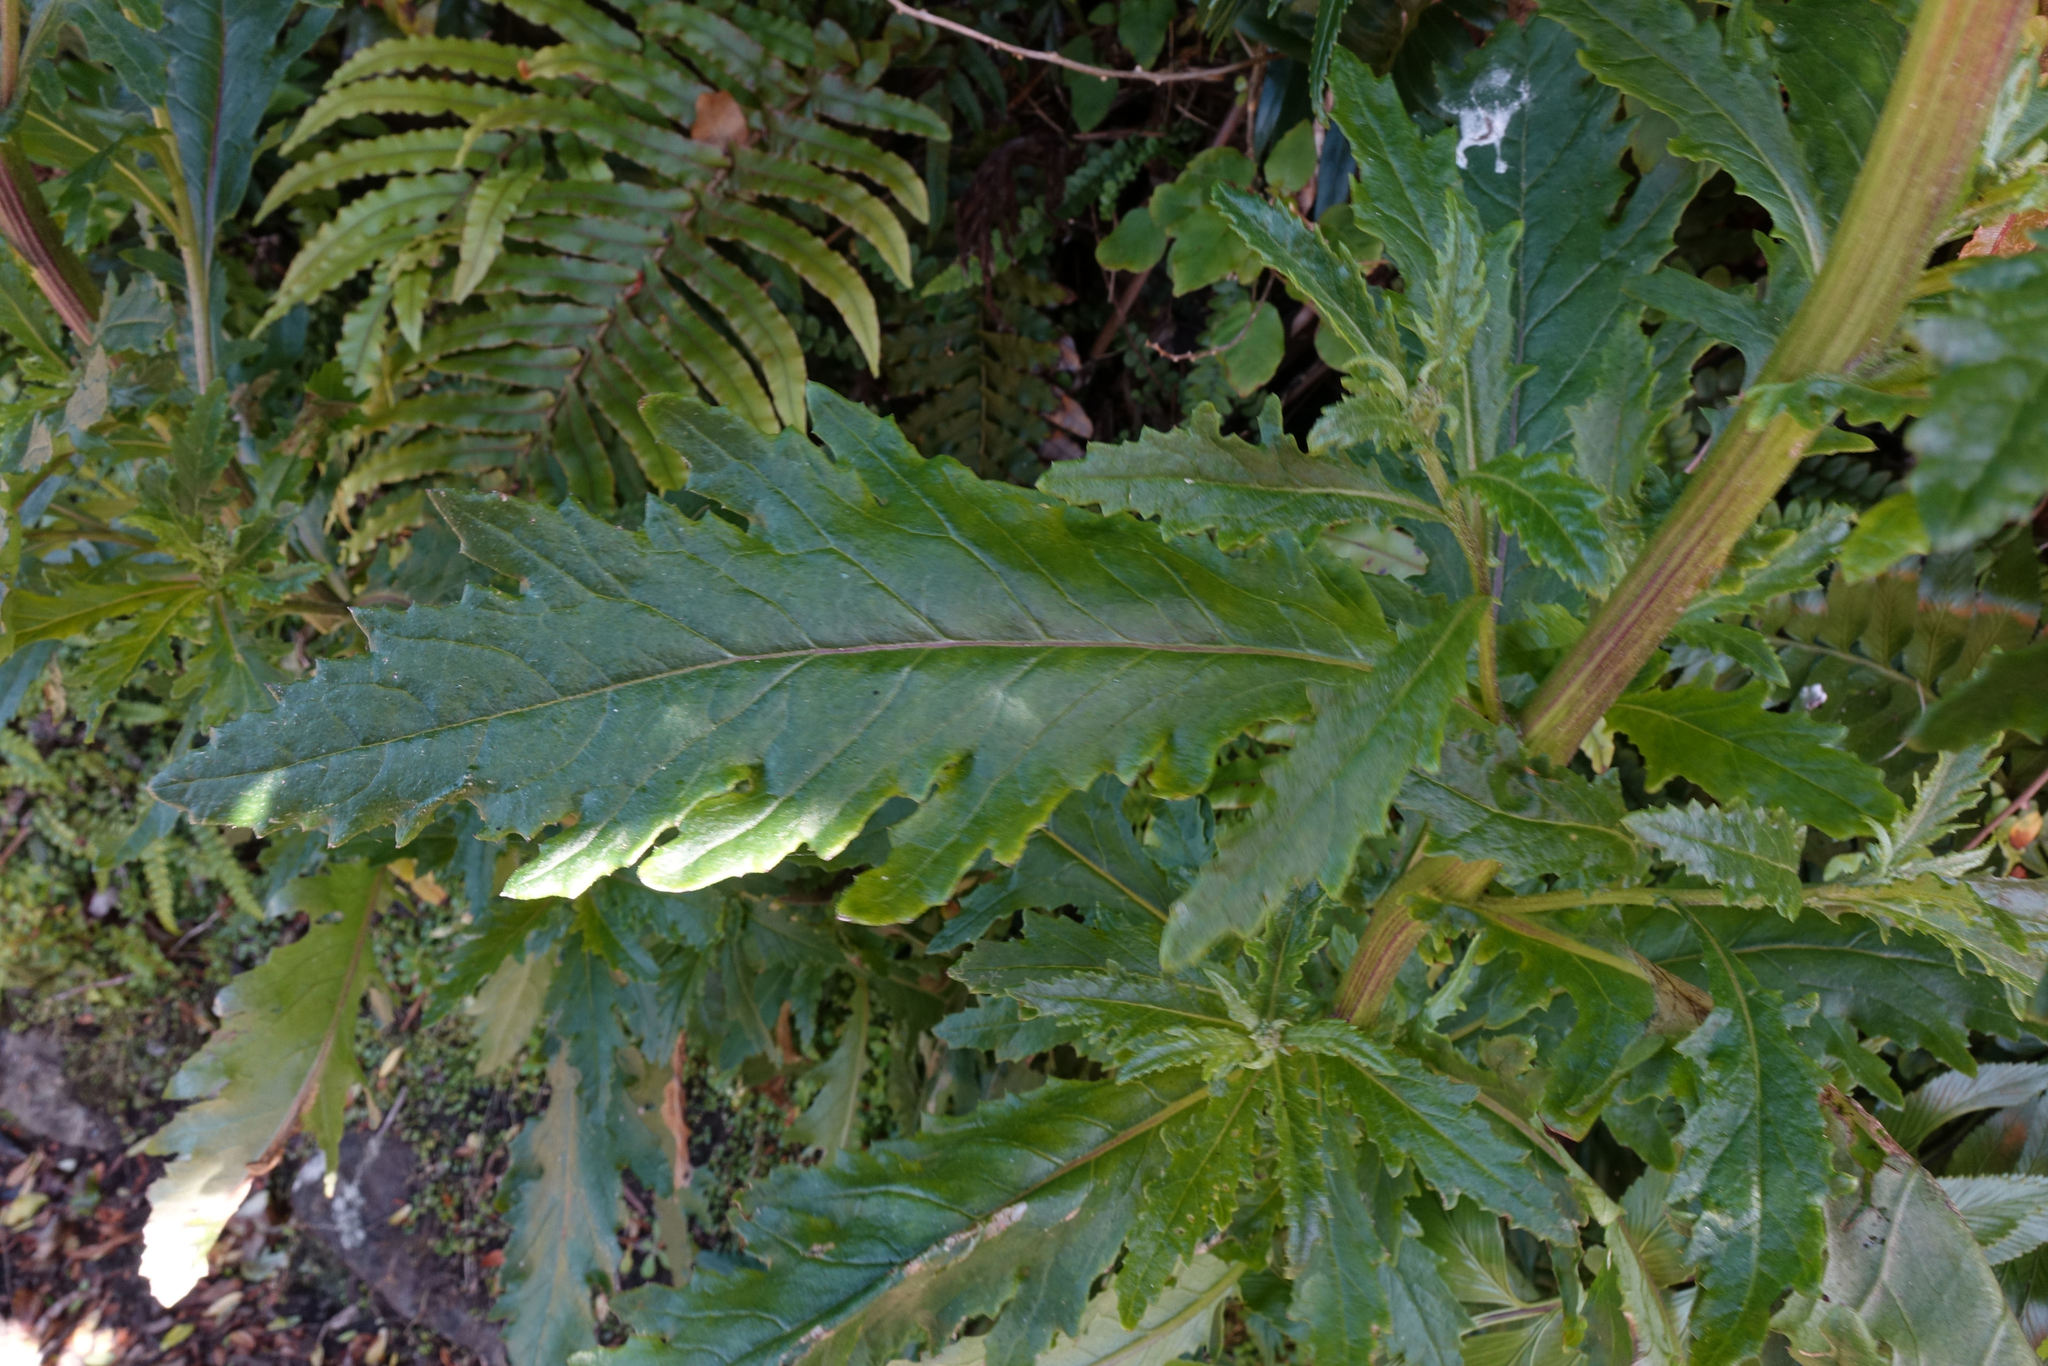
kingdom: Plantae
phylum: Tracheophyta
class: Magnoliopsida
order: Asterales
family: Asteraceae
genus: Senecio
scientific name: Senecio biserratus
